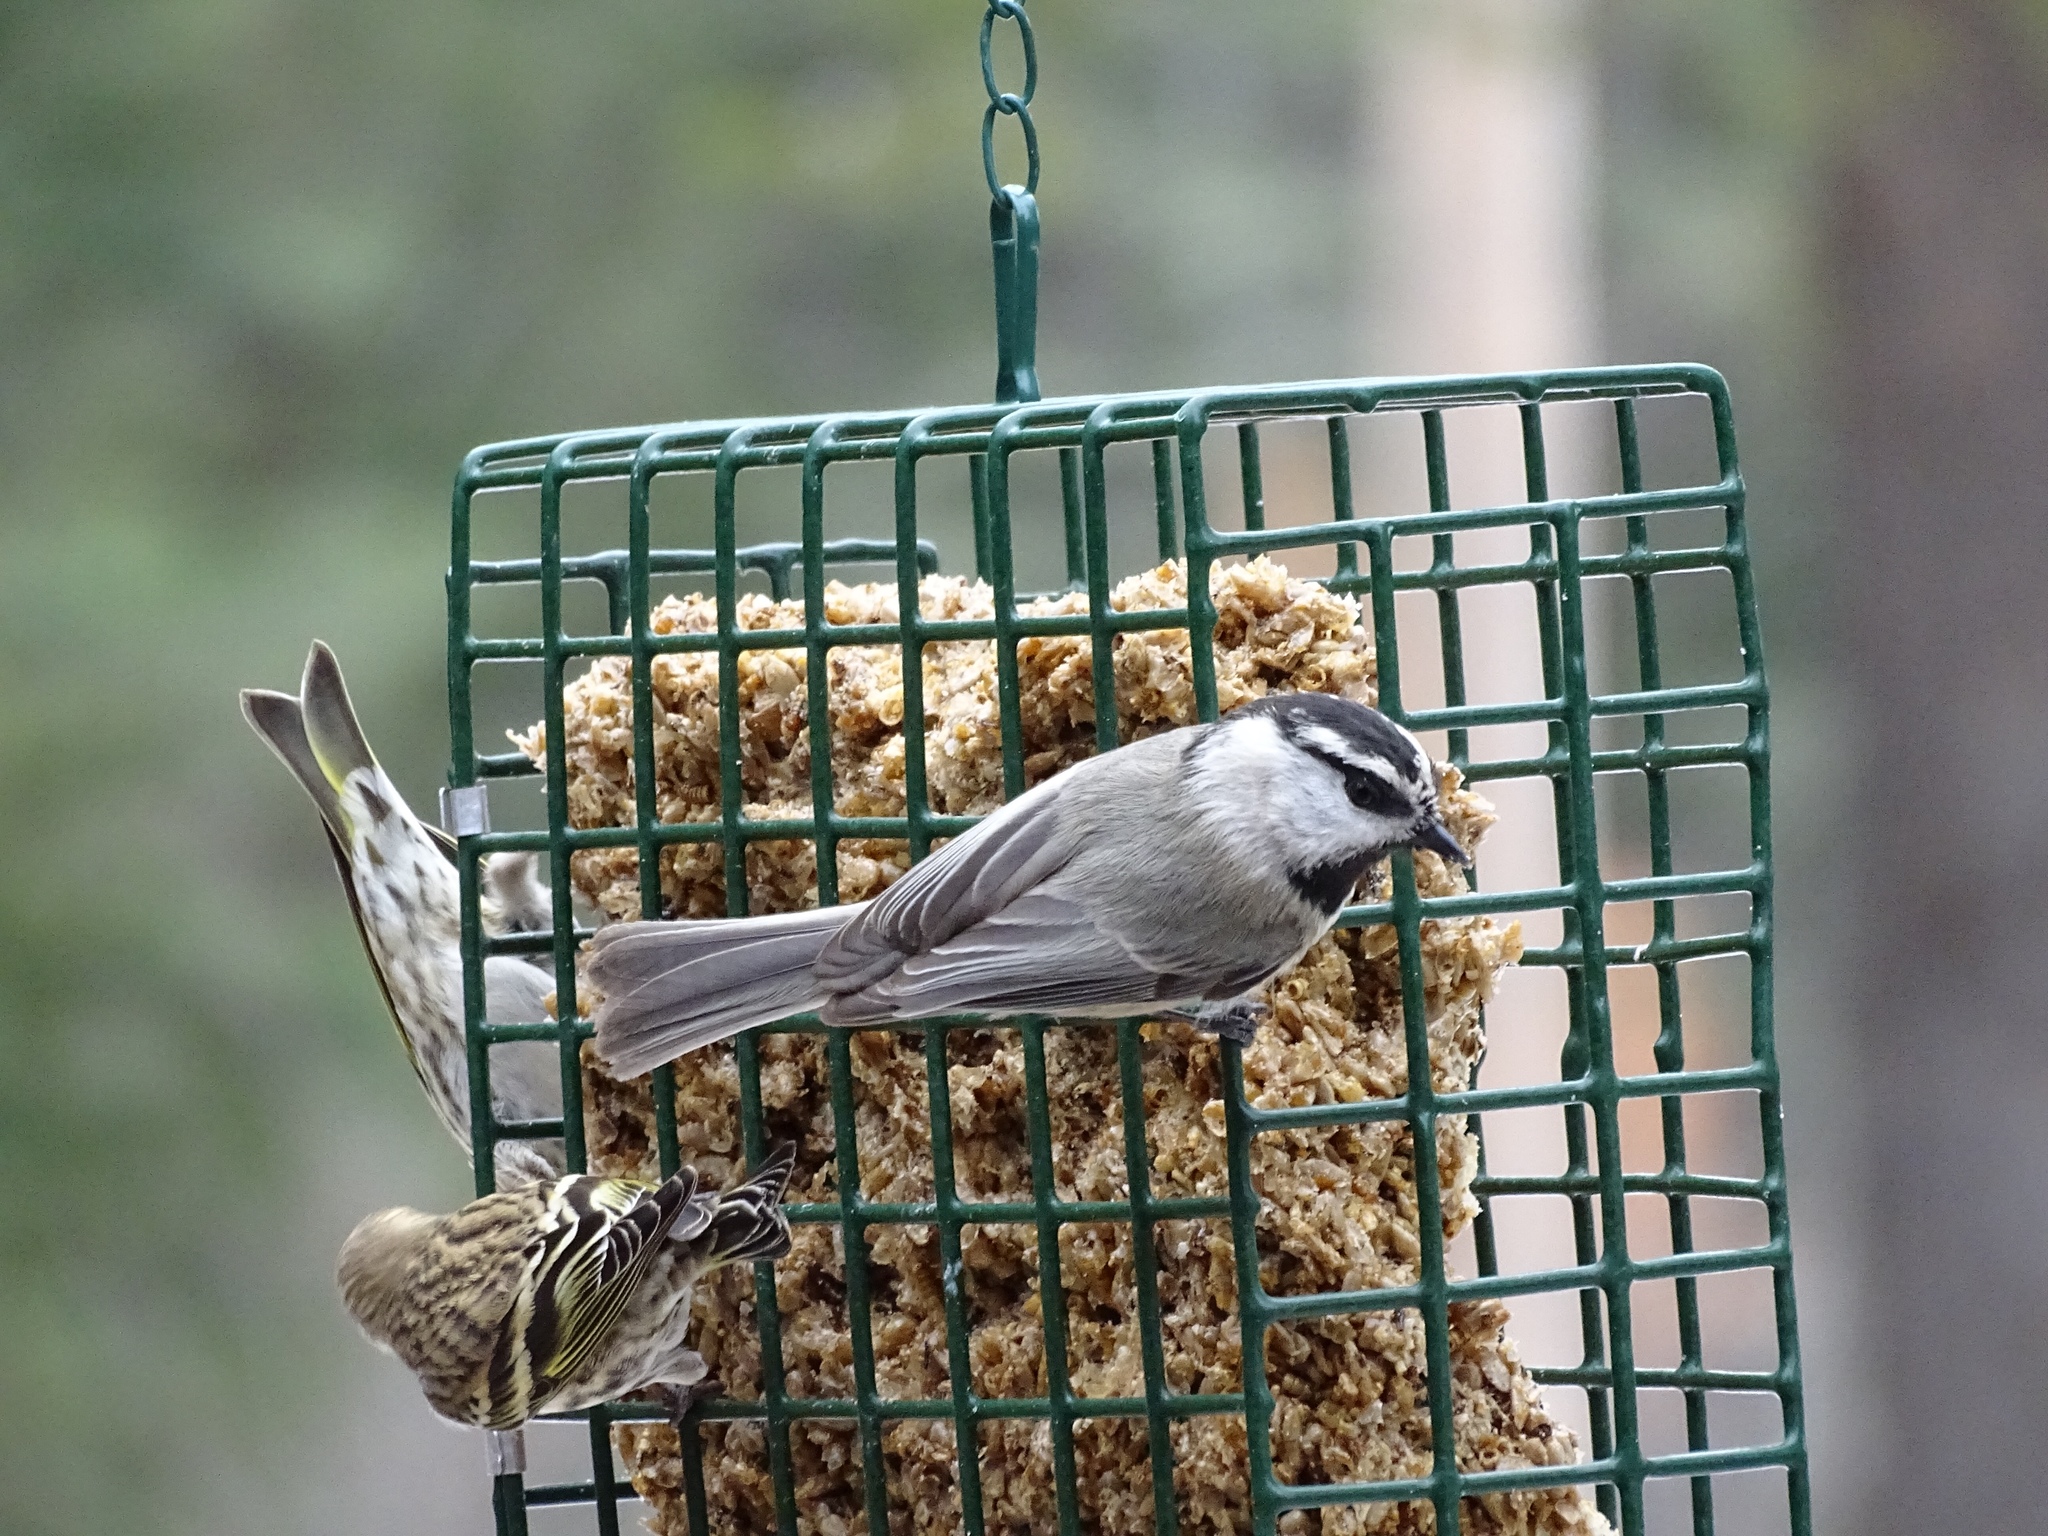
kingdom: Animalia
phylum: Chordata
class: Aves
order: Passeriformes
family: Paridae
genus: Poecile
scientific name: Poecile gambeli
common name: Mountain chickadee
